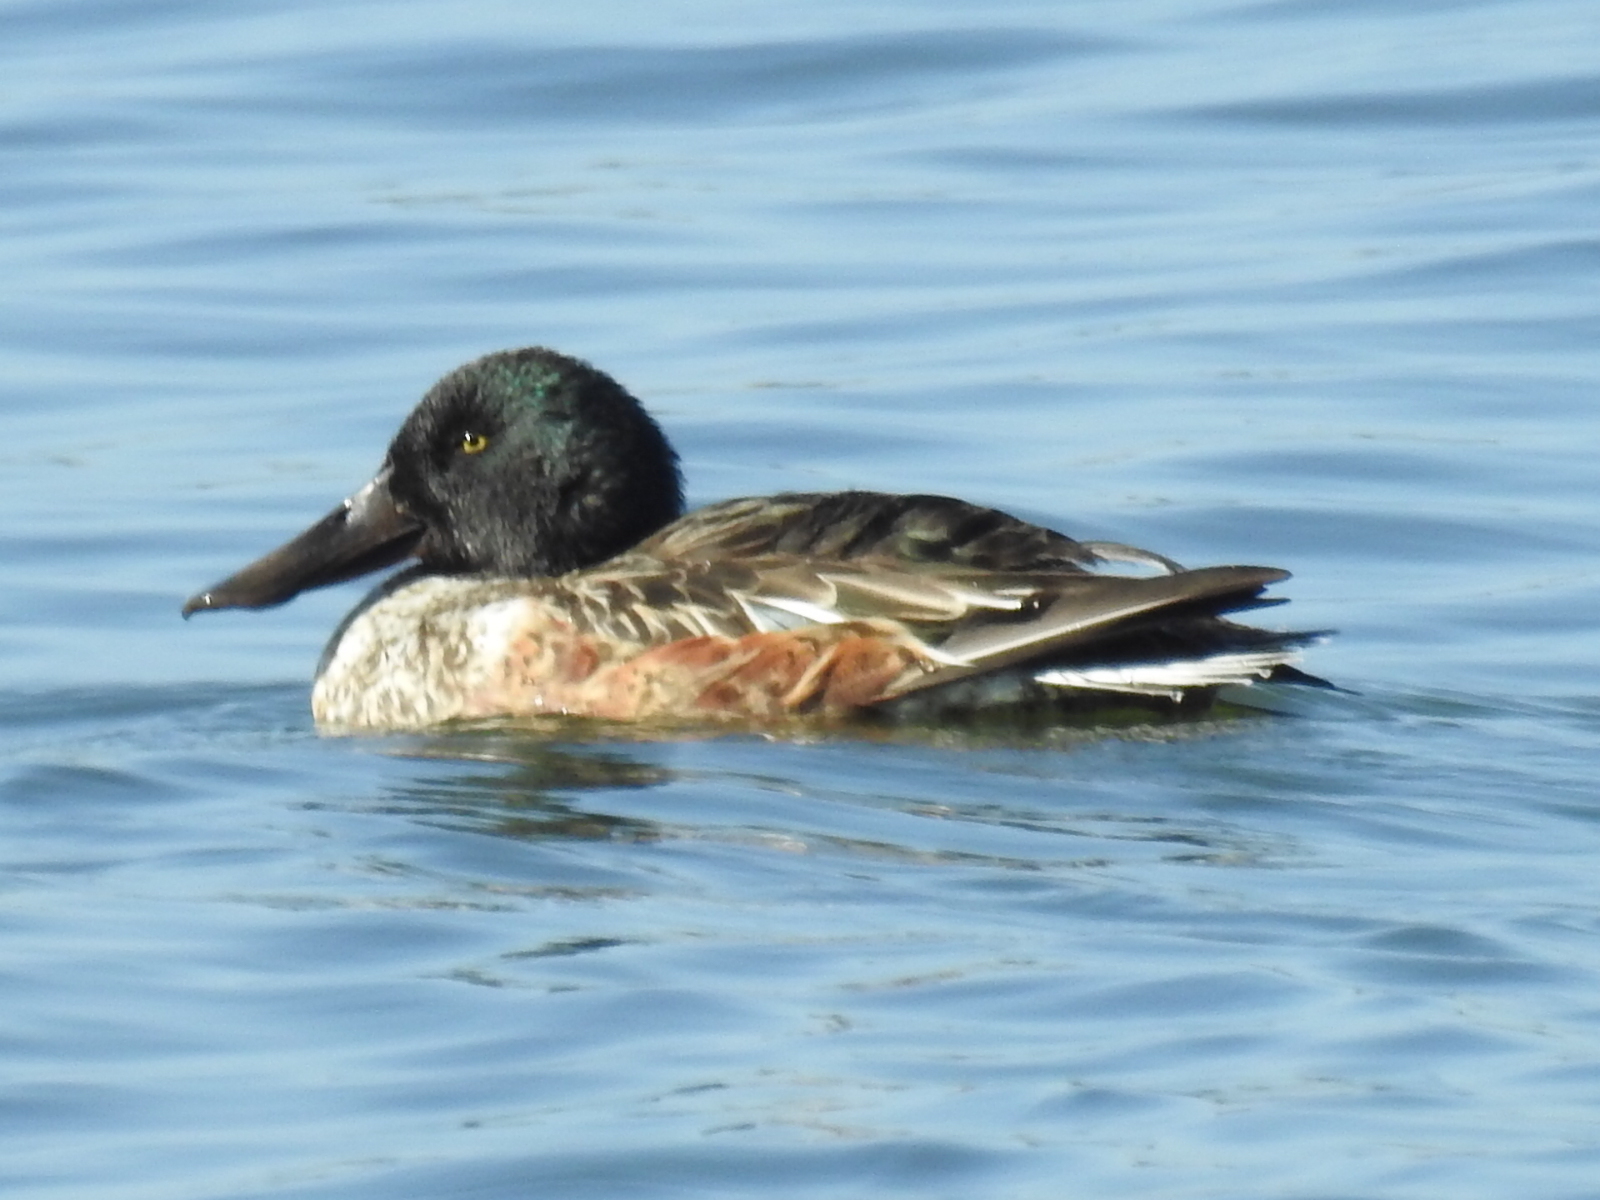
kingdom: Animalia
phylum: Chordata
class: Aves
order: Anseriformes
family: Anatidae
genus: Spatula
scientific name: Spatula clypeata
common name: Northern shoveler
